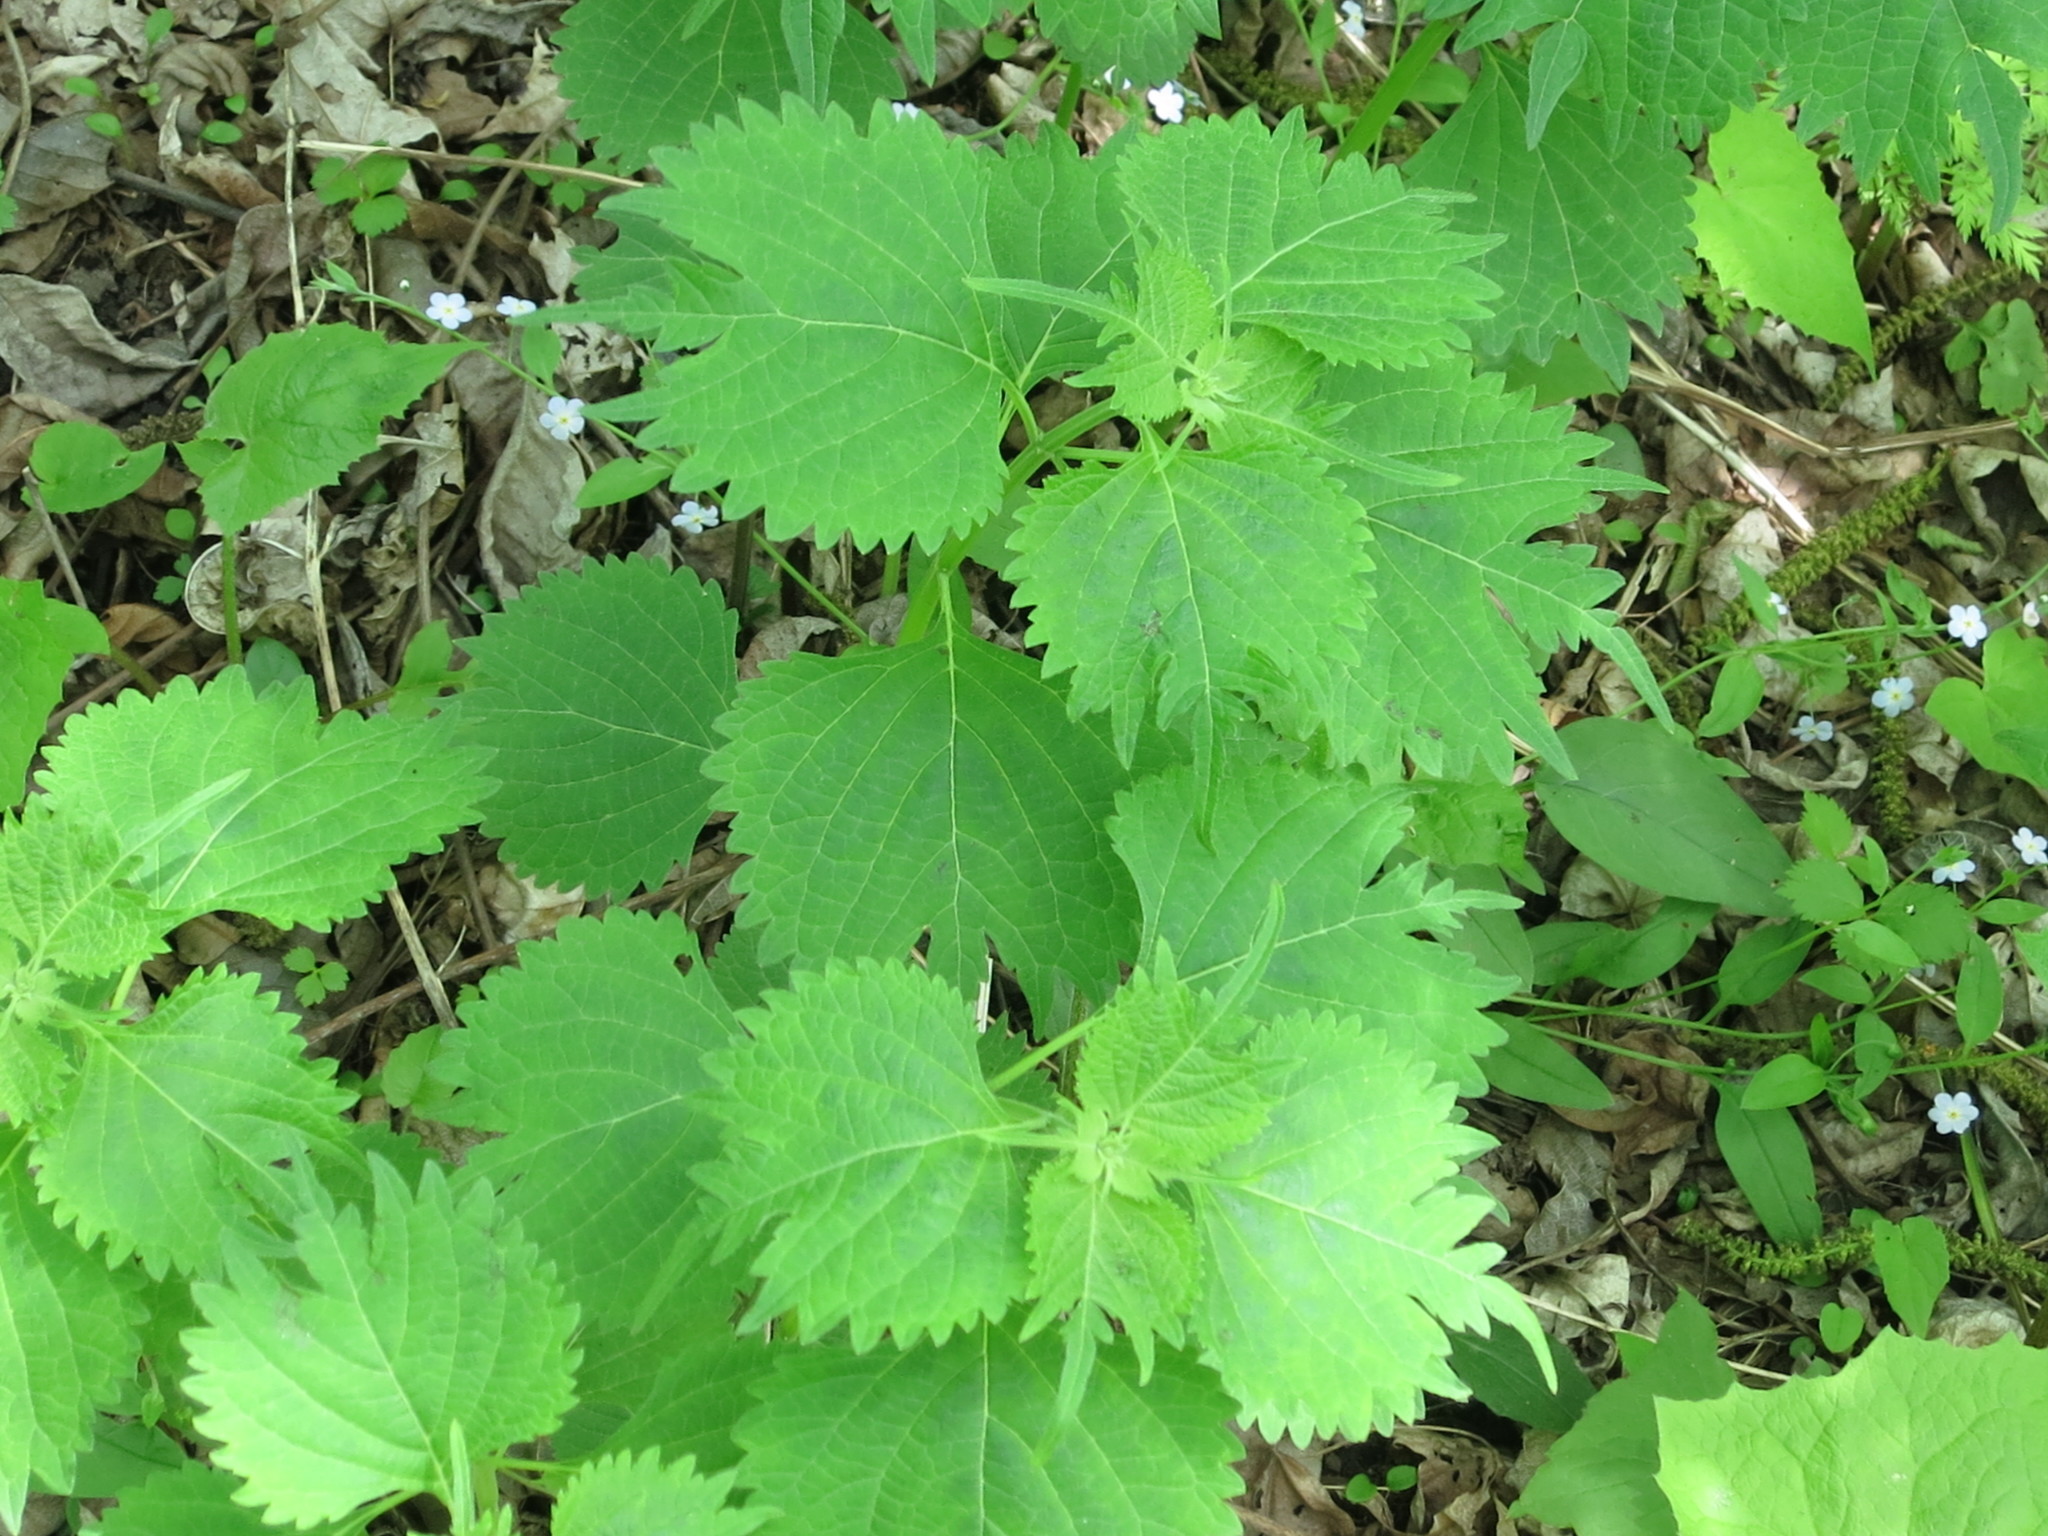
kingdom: Plantae
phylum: Tracheophyta
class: Magnoliopsida
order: Lamiales
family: Lamiaceae
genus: Isodon
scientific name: Isodon excisus
